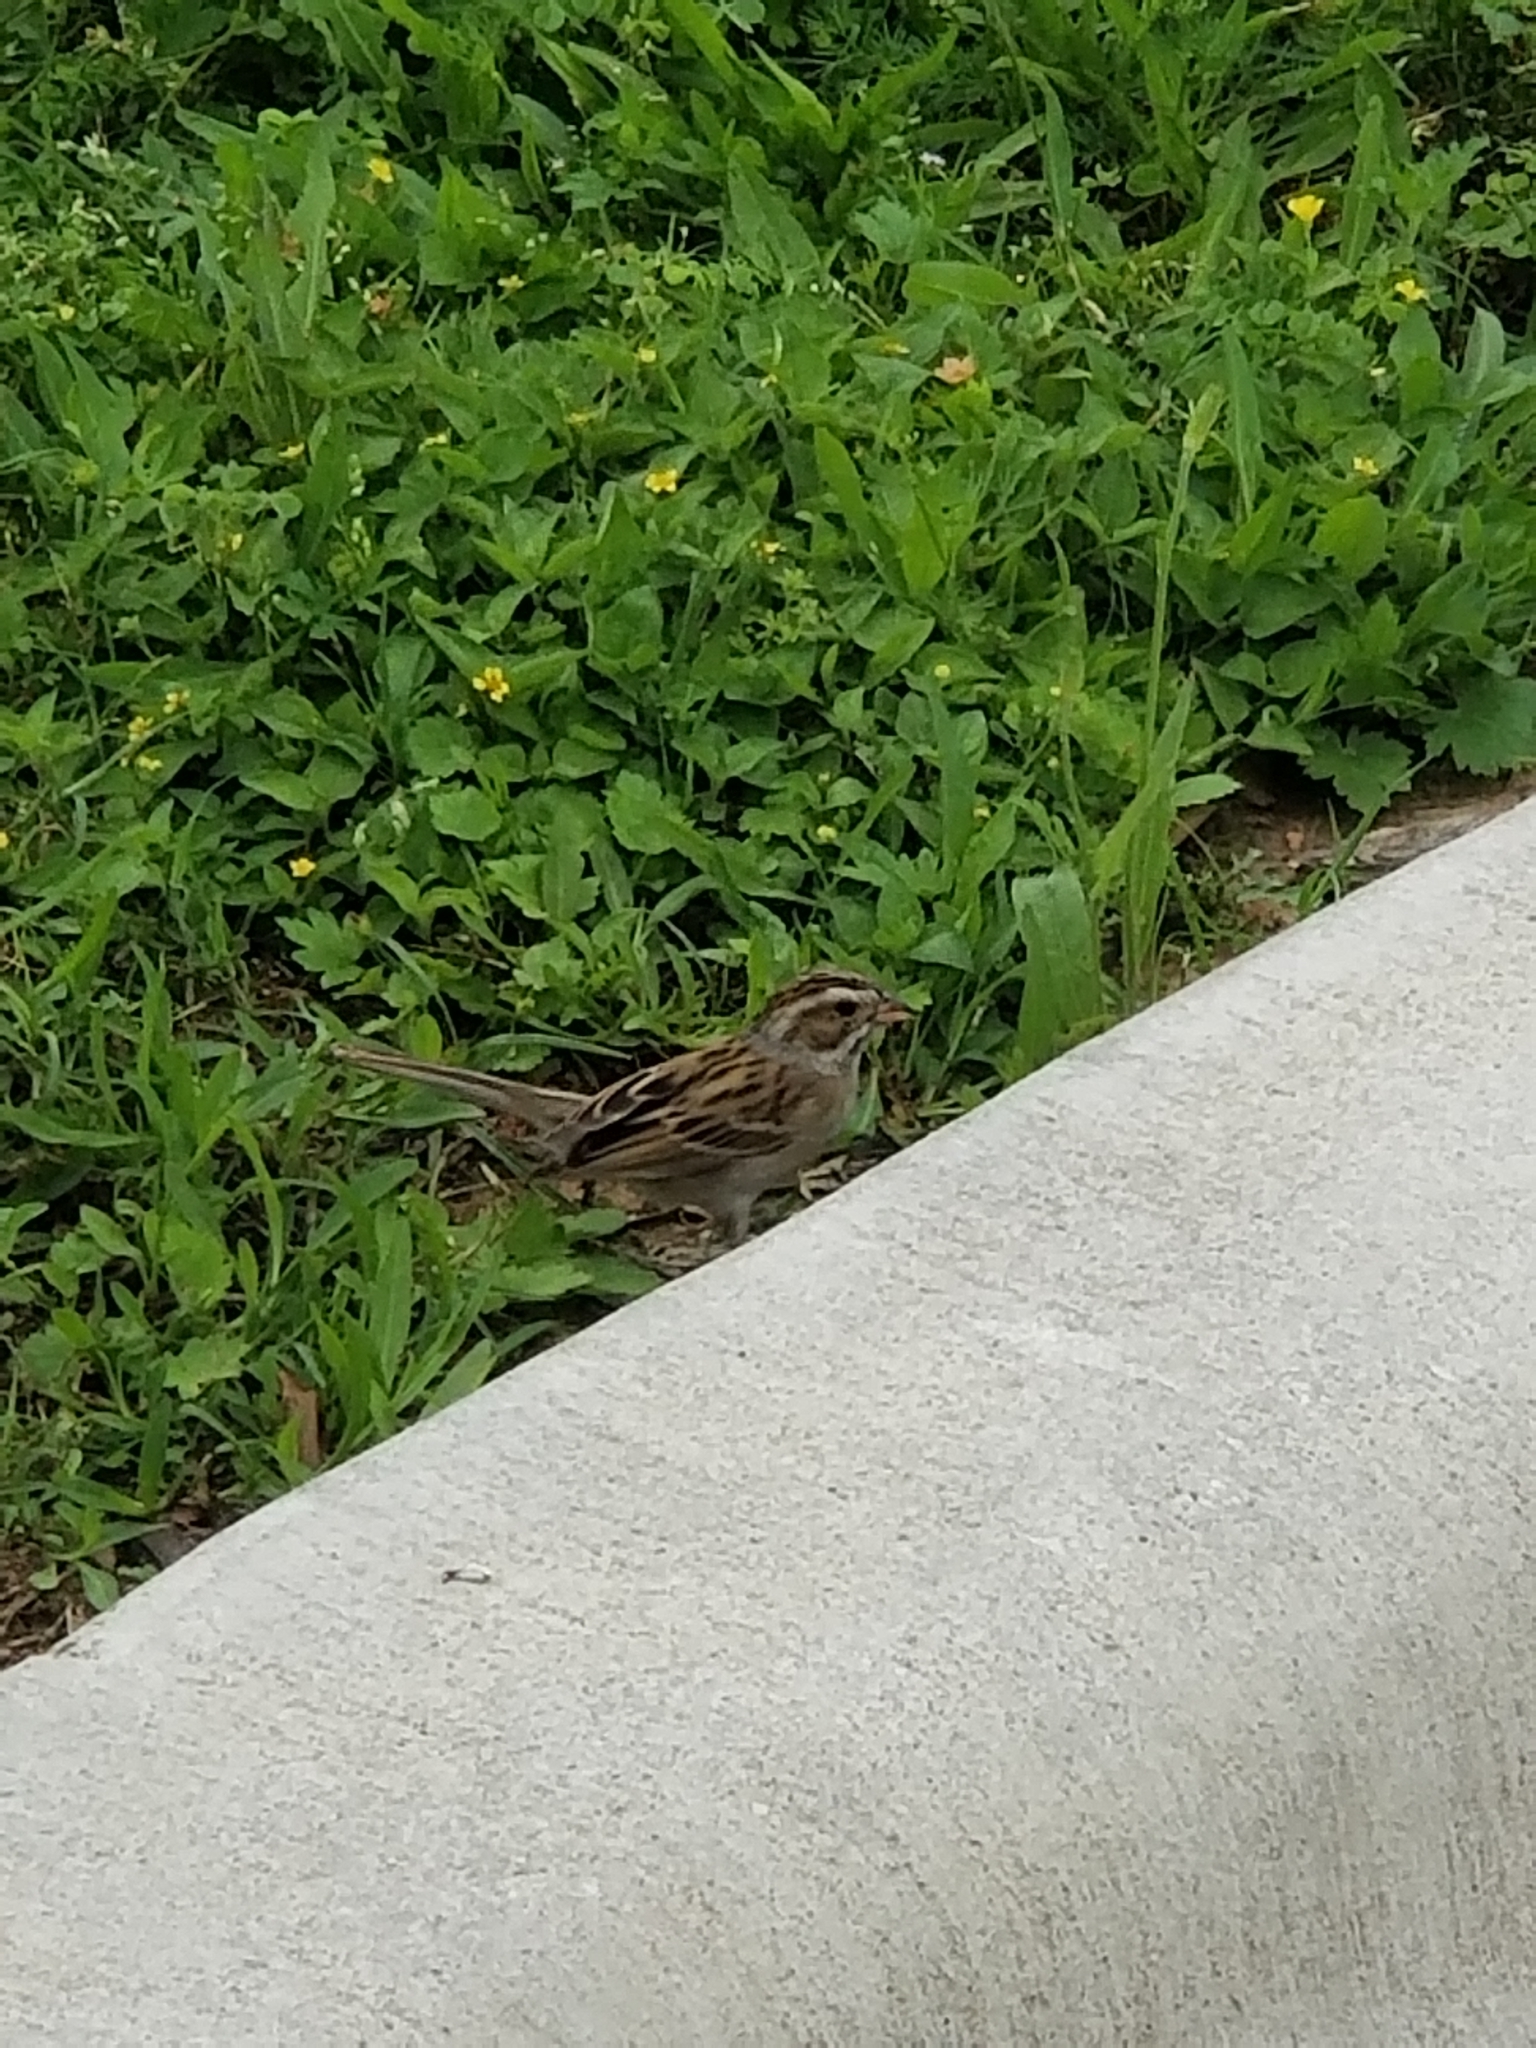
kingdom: Animalia
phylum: Chordata
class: Aves
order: Passeriformes
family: Passerellidae
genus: Spizella
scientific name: Spizella pallida
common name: Clay-colored sparrow
